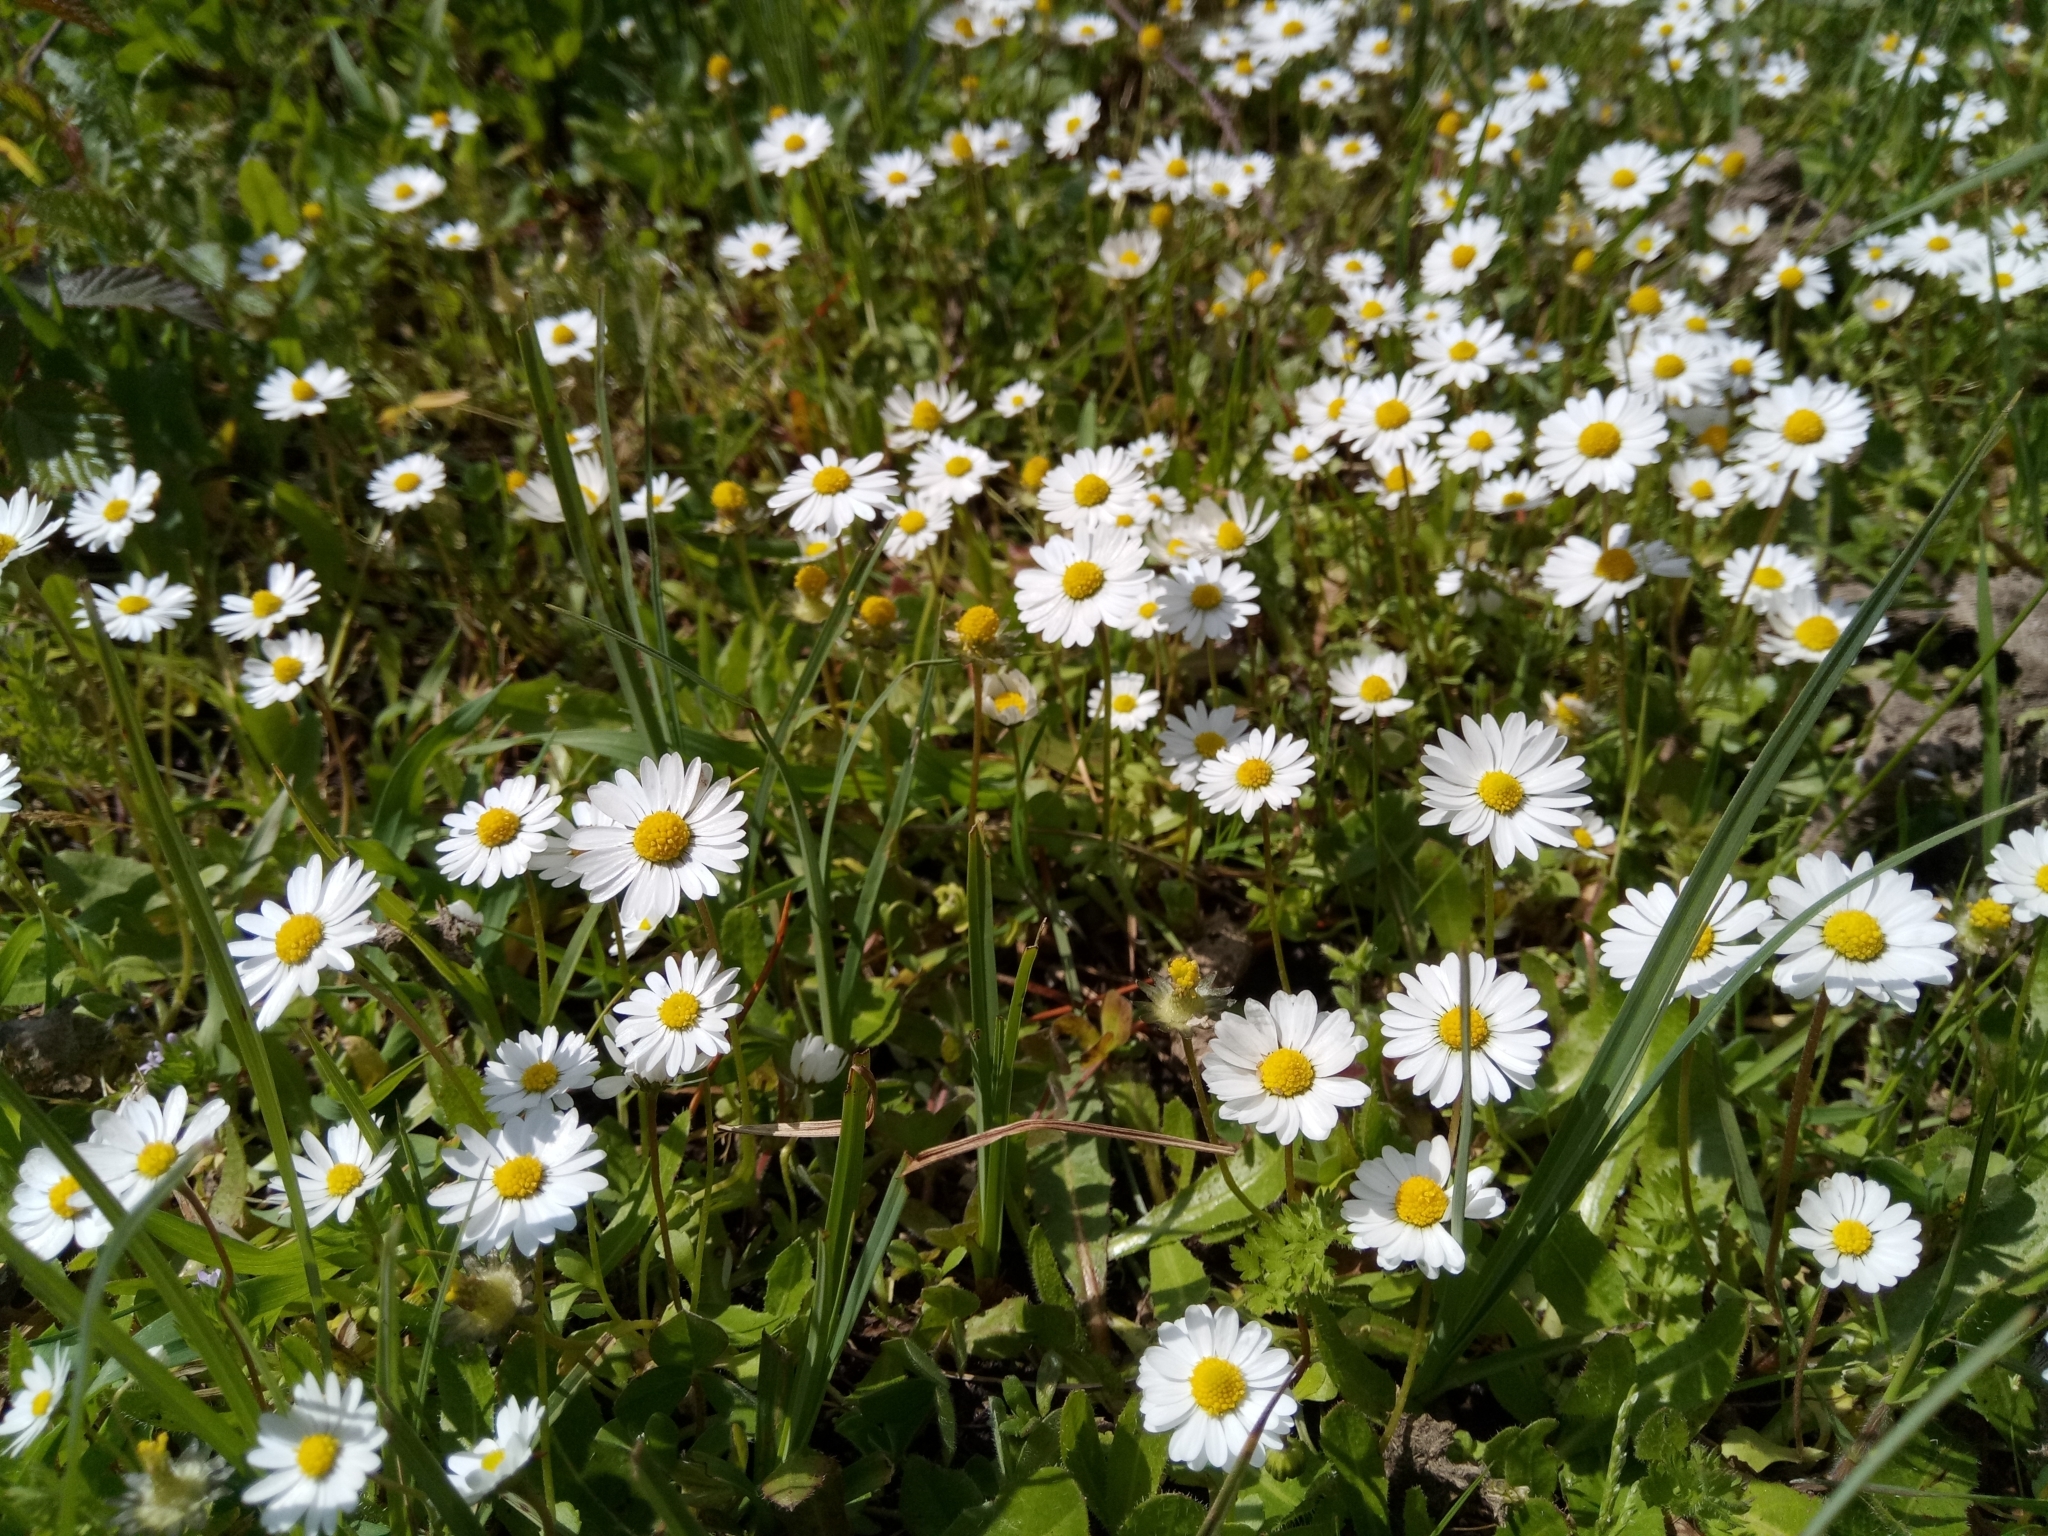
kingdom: Plantae
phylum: Tracheophyta
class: Magnoliopsida
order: Asterales
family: Asteraceae
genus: Bellis
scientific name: Bellis annua
